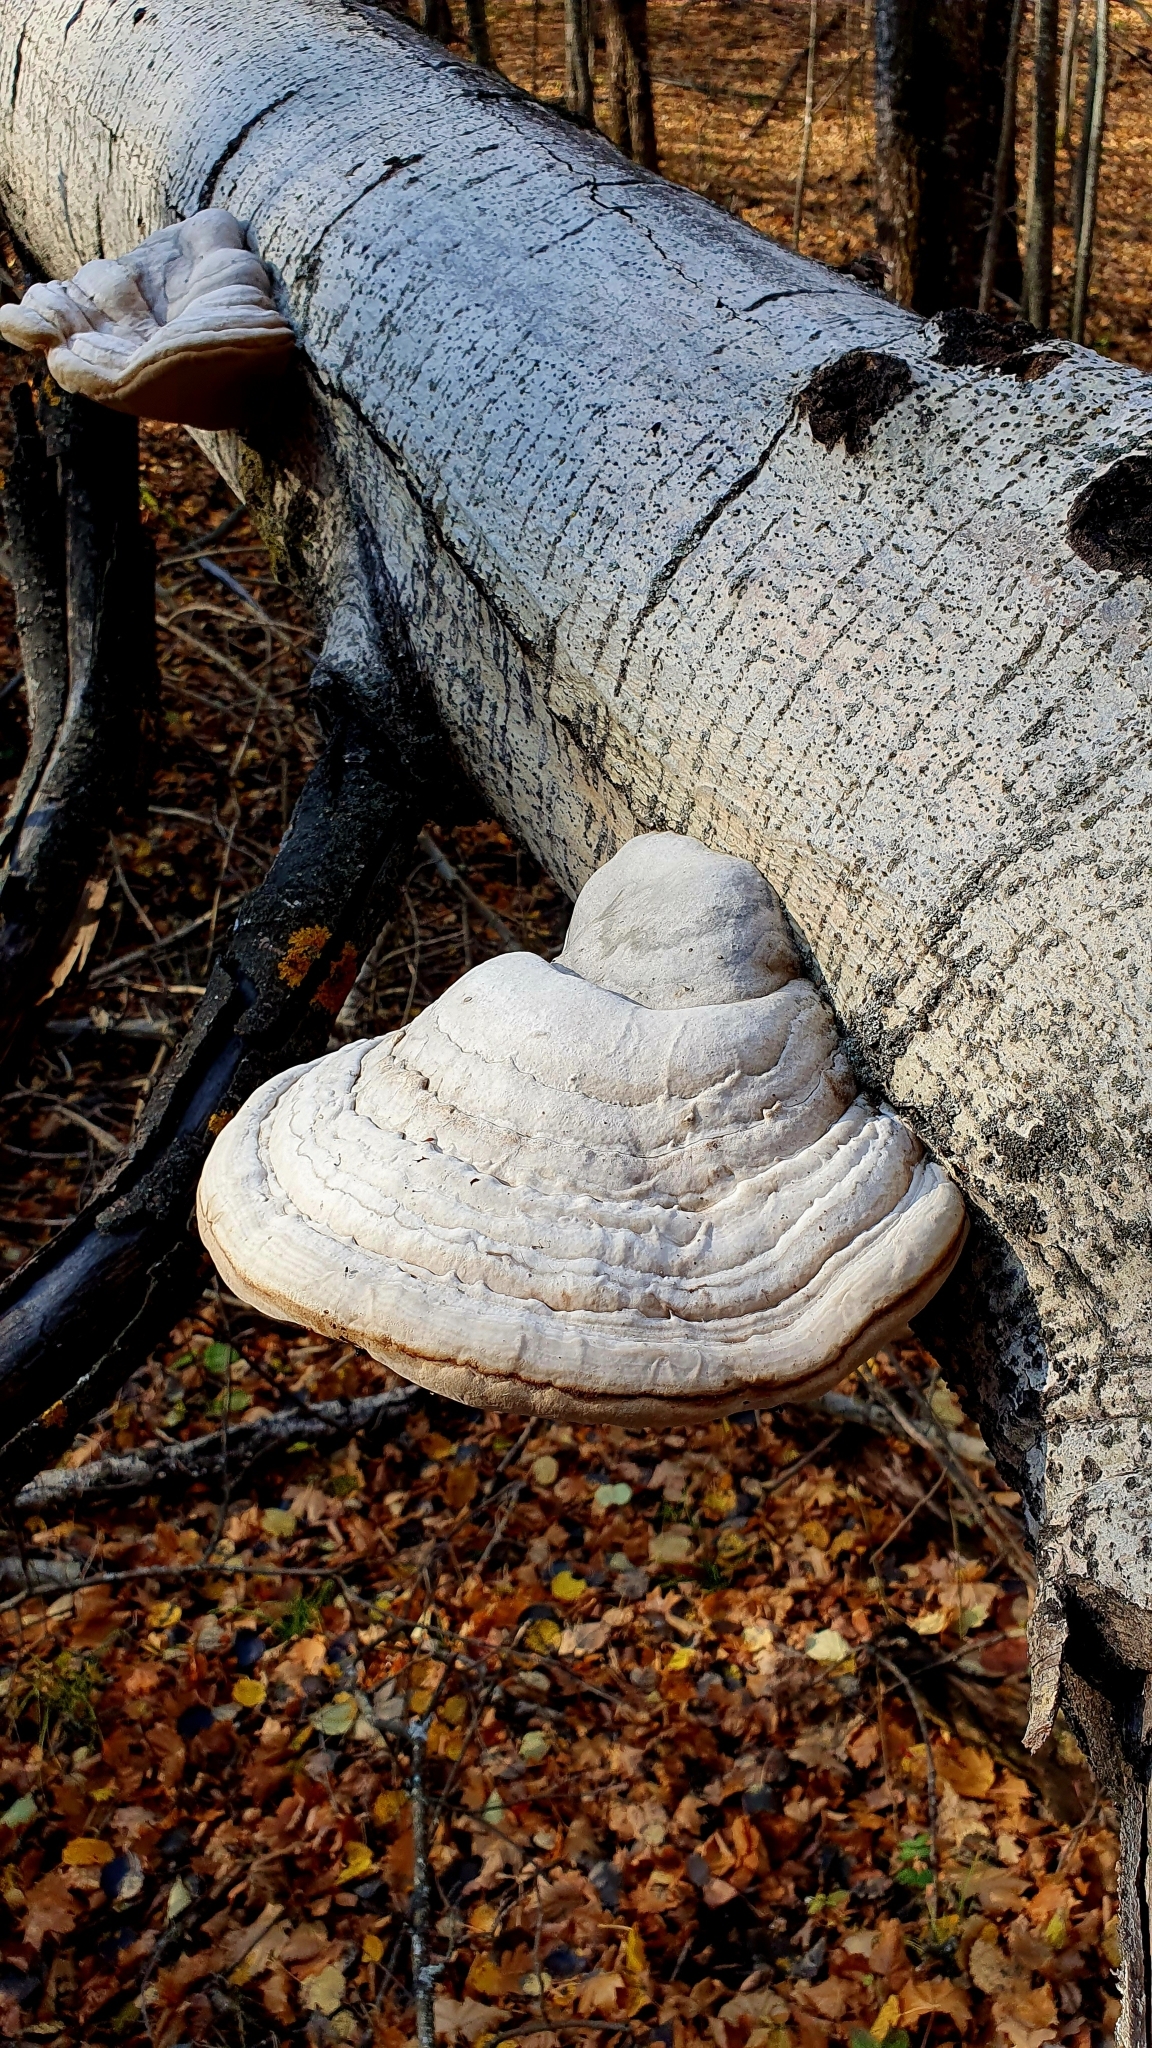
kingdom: Fungi
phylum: Basidiomycota
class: Agaricomycetes
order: Polyporales
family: Polyporaceae
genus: Fomes
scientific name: Fomes fomentarius
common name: Hoof fungus
